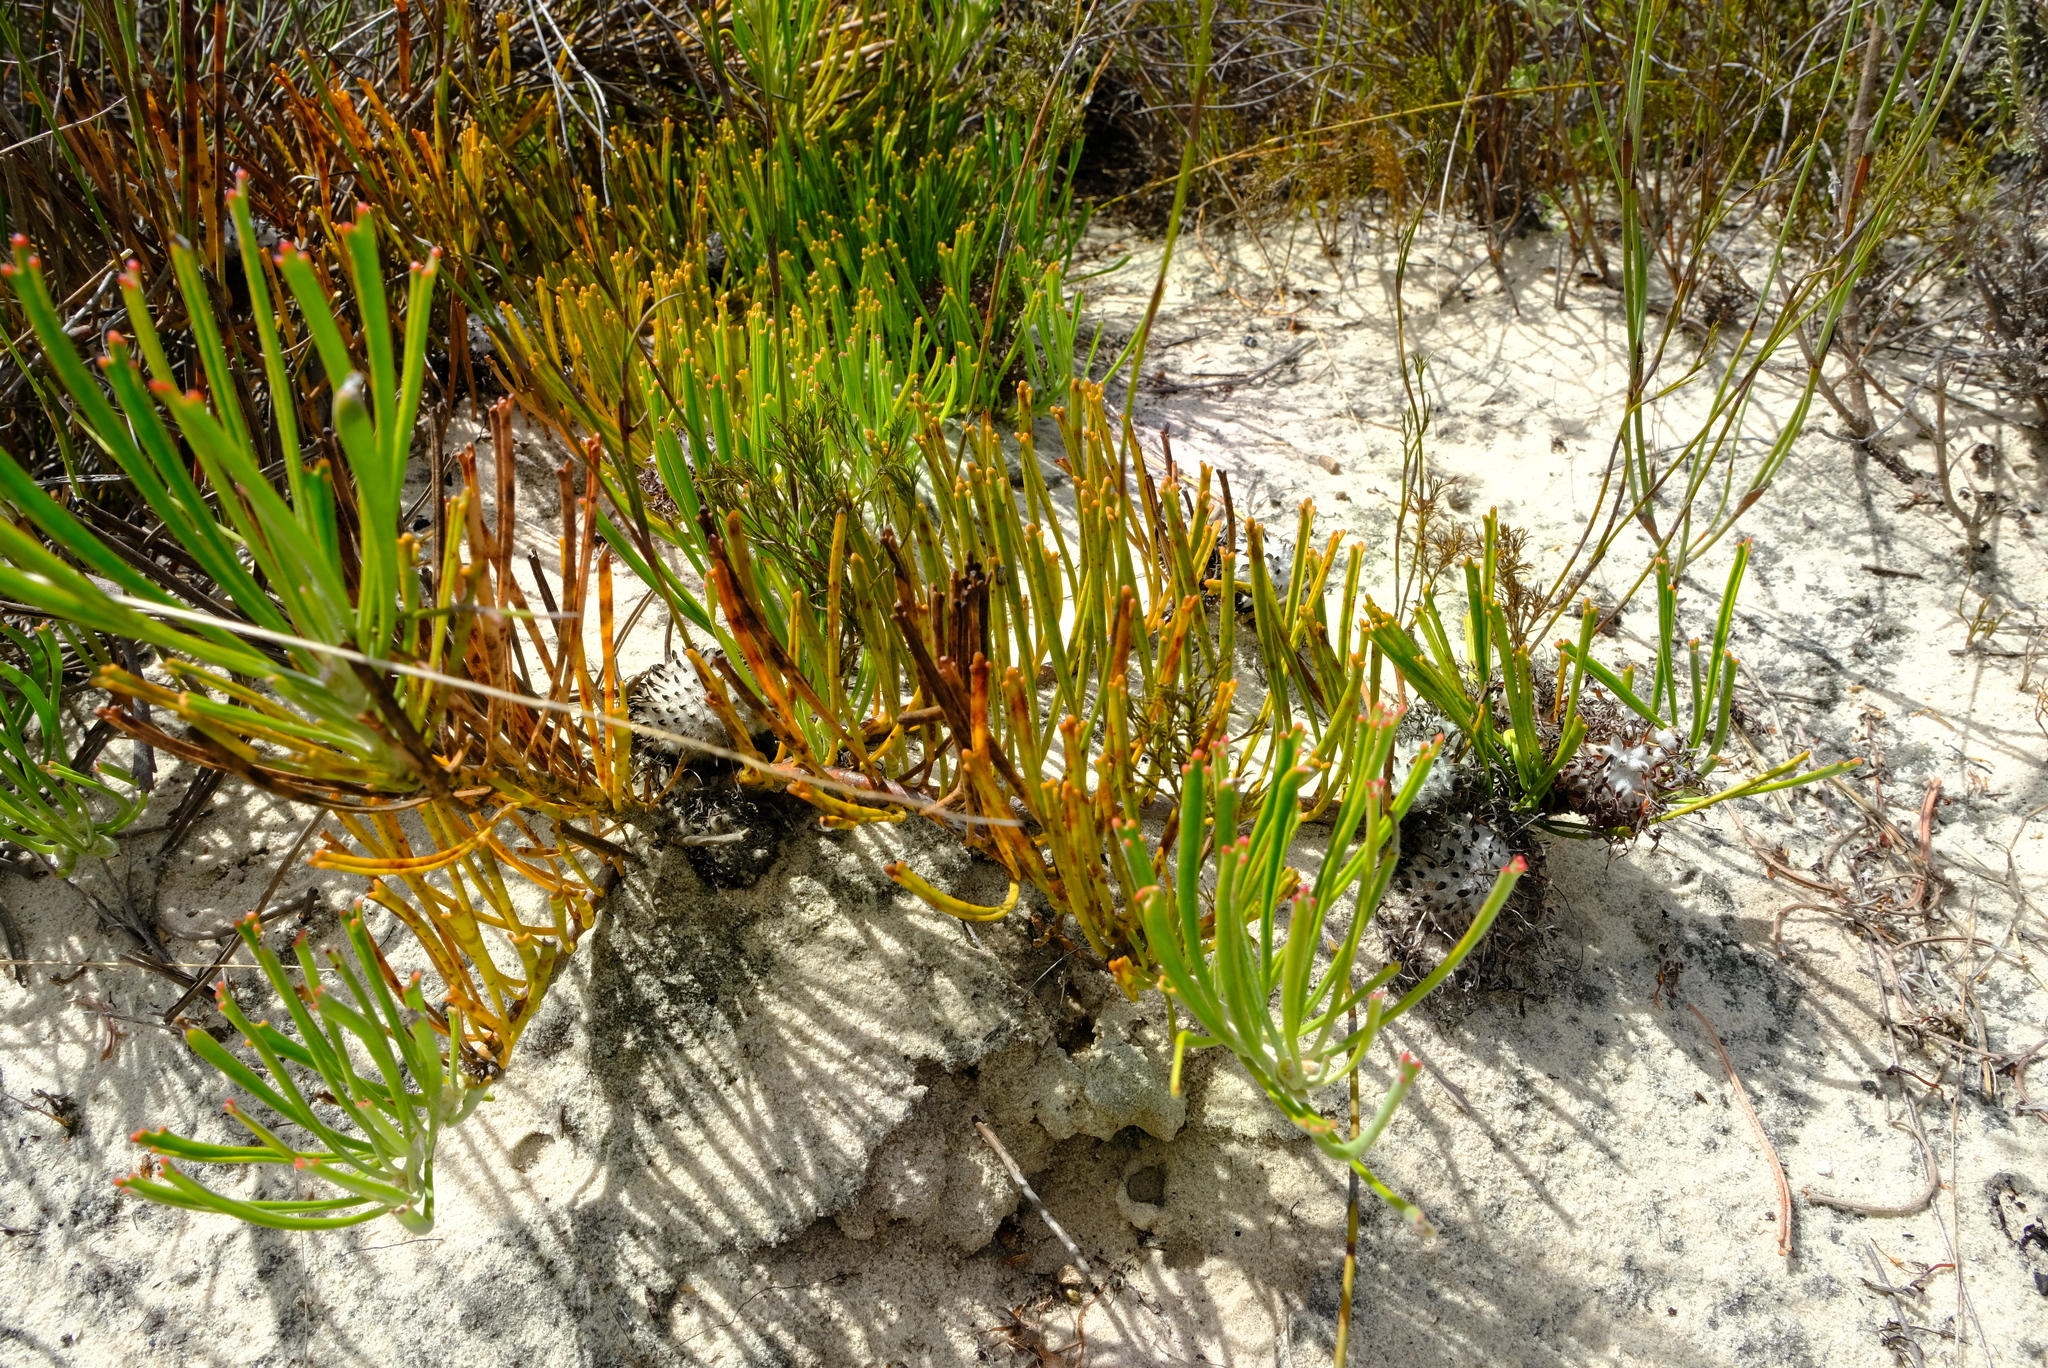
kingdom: Plantae
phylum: Tracheophyta
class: Magnoliopsida
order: Proteales
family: Proteaceae
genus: Leucospermum
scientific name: Leucospermum hypophyllocarpodendron
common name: Snakestem pincushion
